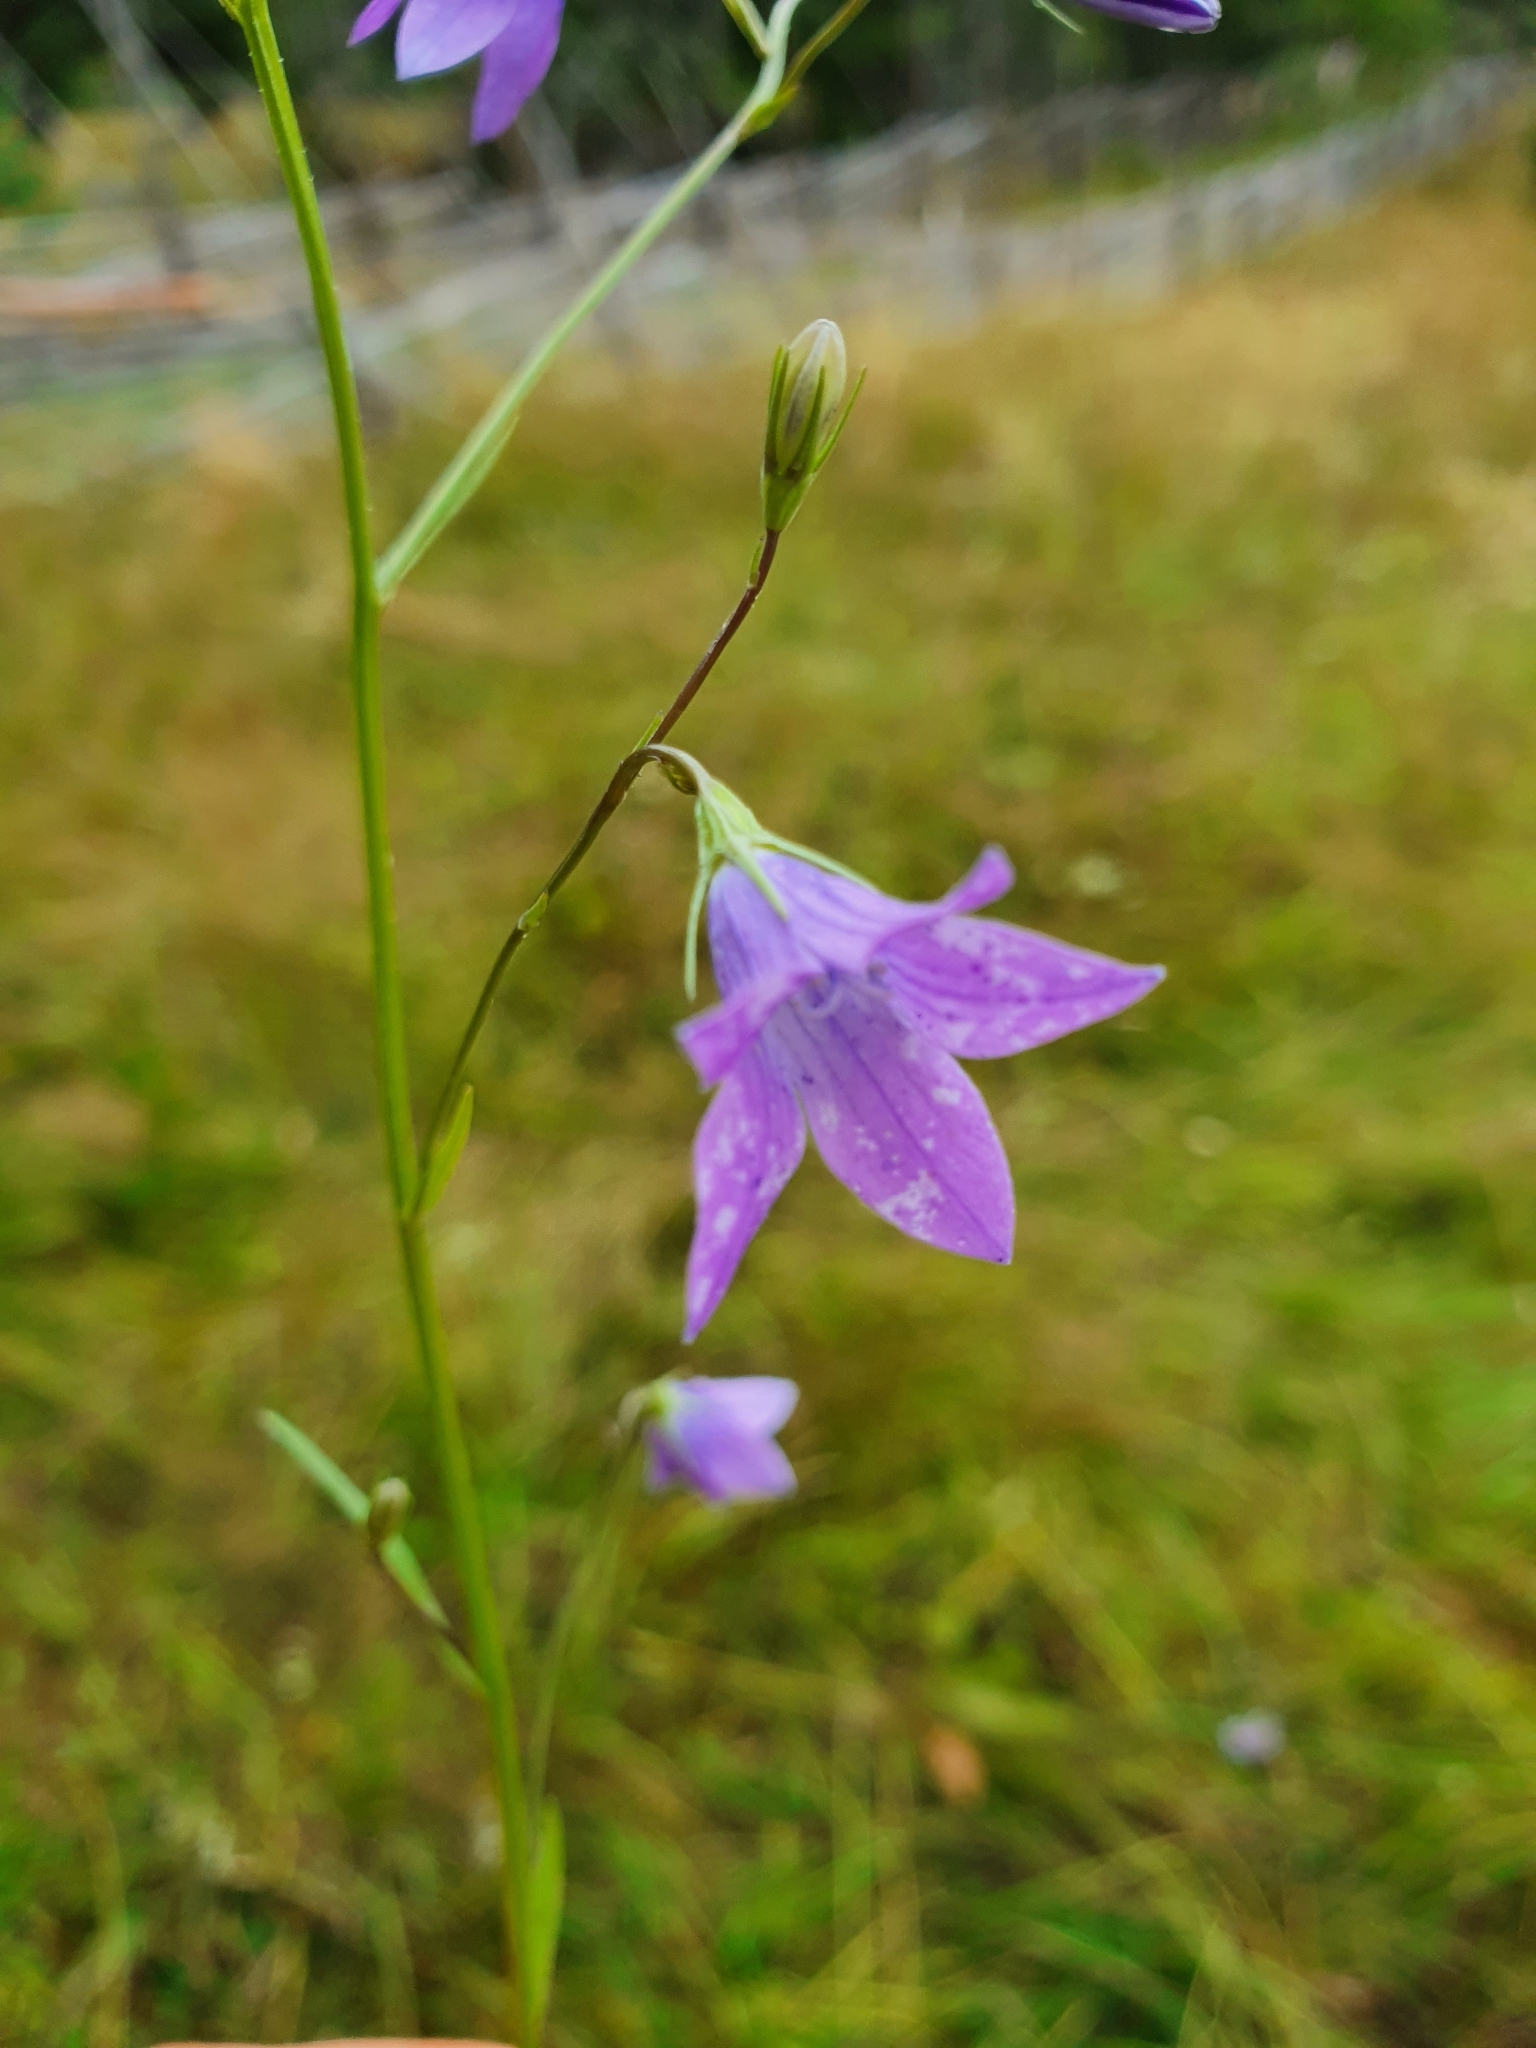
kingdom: Plantae
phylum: Tracheophyta
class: Magnoliopsida
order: Asterales
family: Campanulaceae
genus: Campanula
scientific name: Campanula patula
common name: Spreading bellflower
